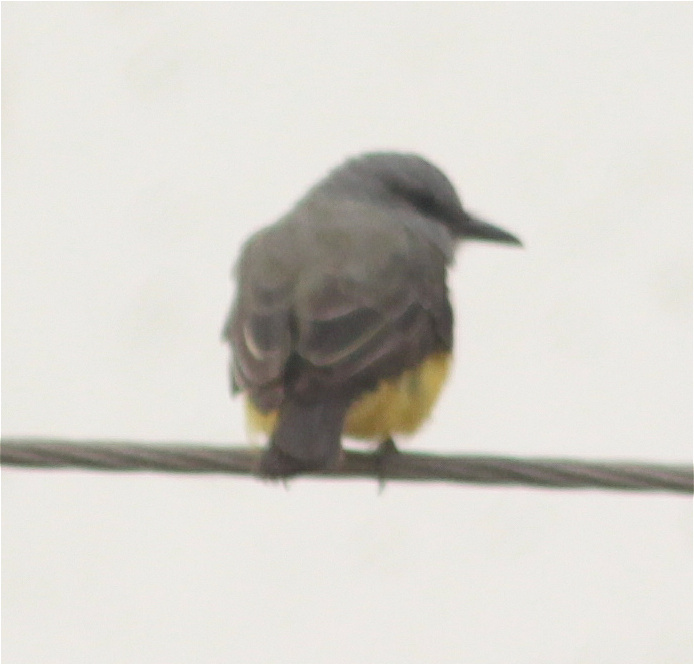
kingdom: Animalia
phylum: Chordata
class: Aves
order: Passeriformes
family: Tyrannidae
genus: Tyrannus
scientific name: Tyrannus melancholicus
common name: Tropical kingbird
